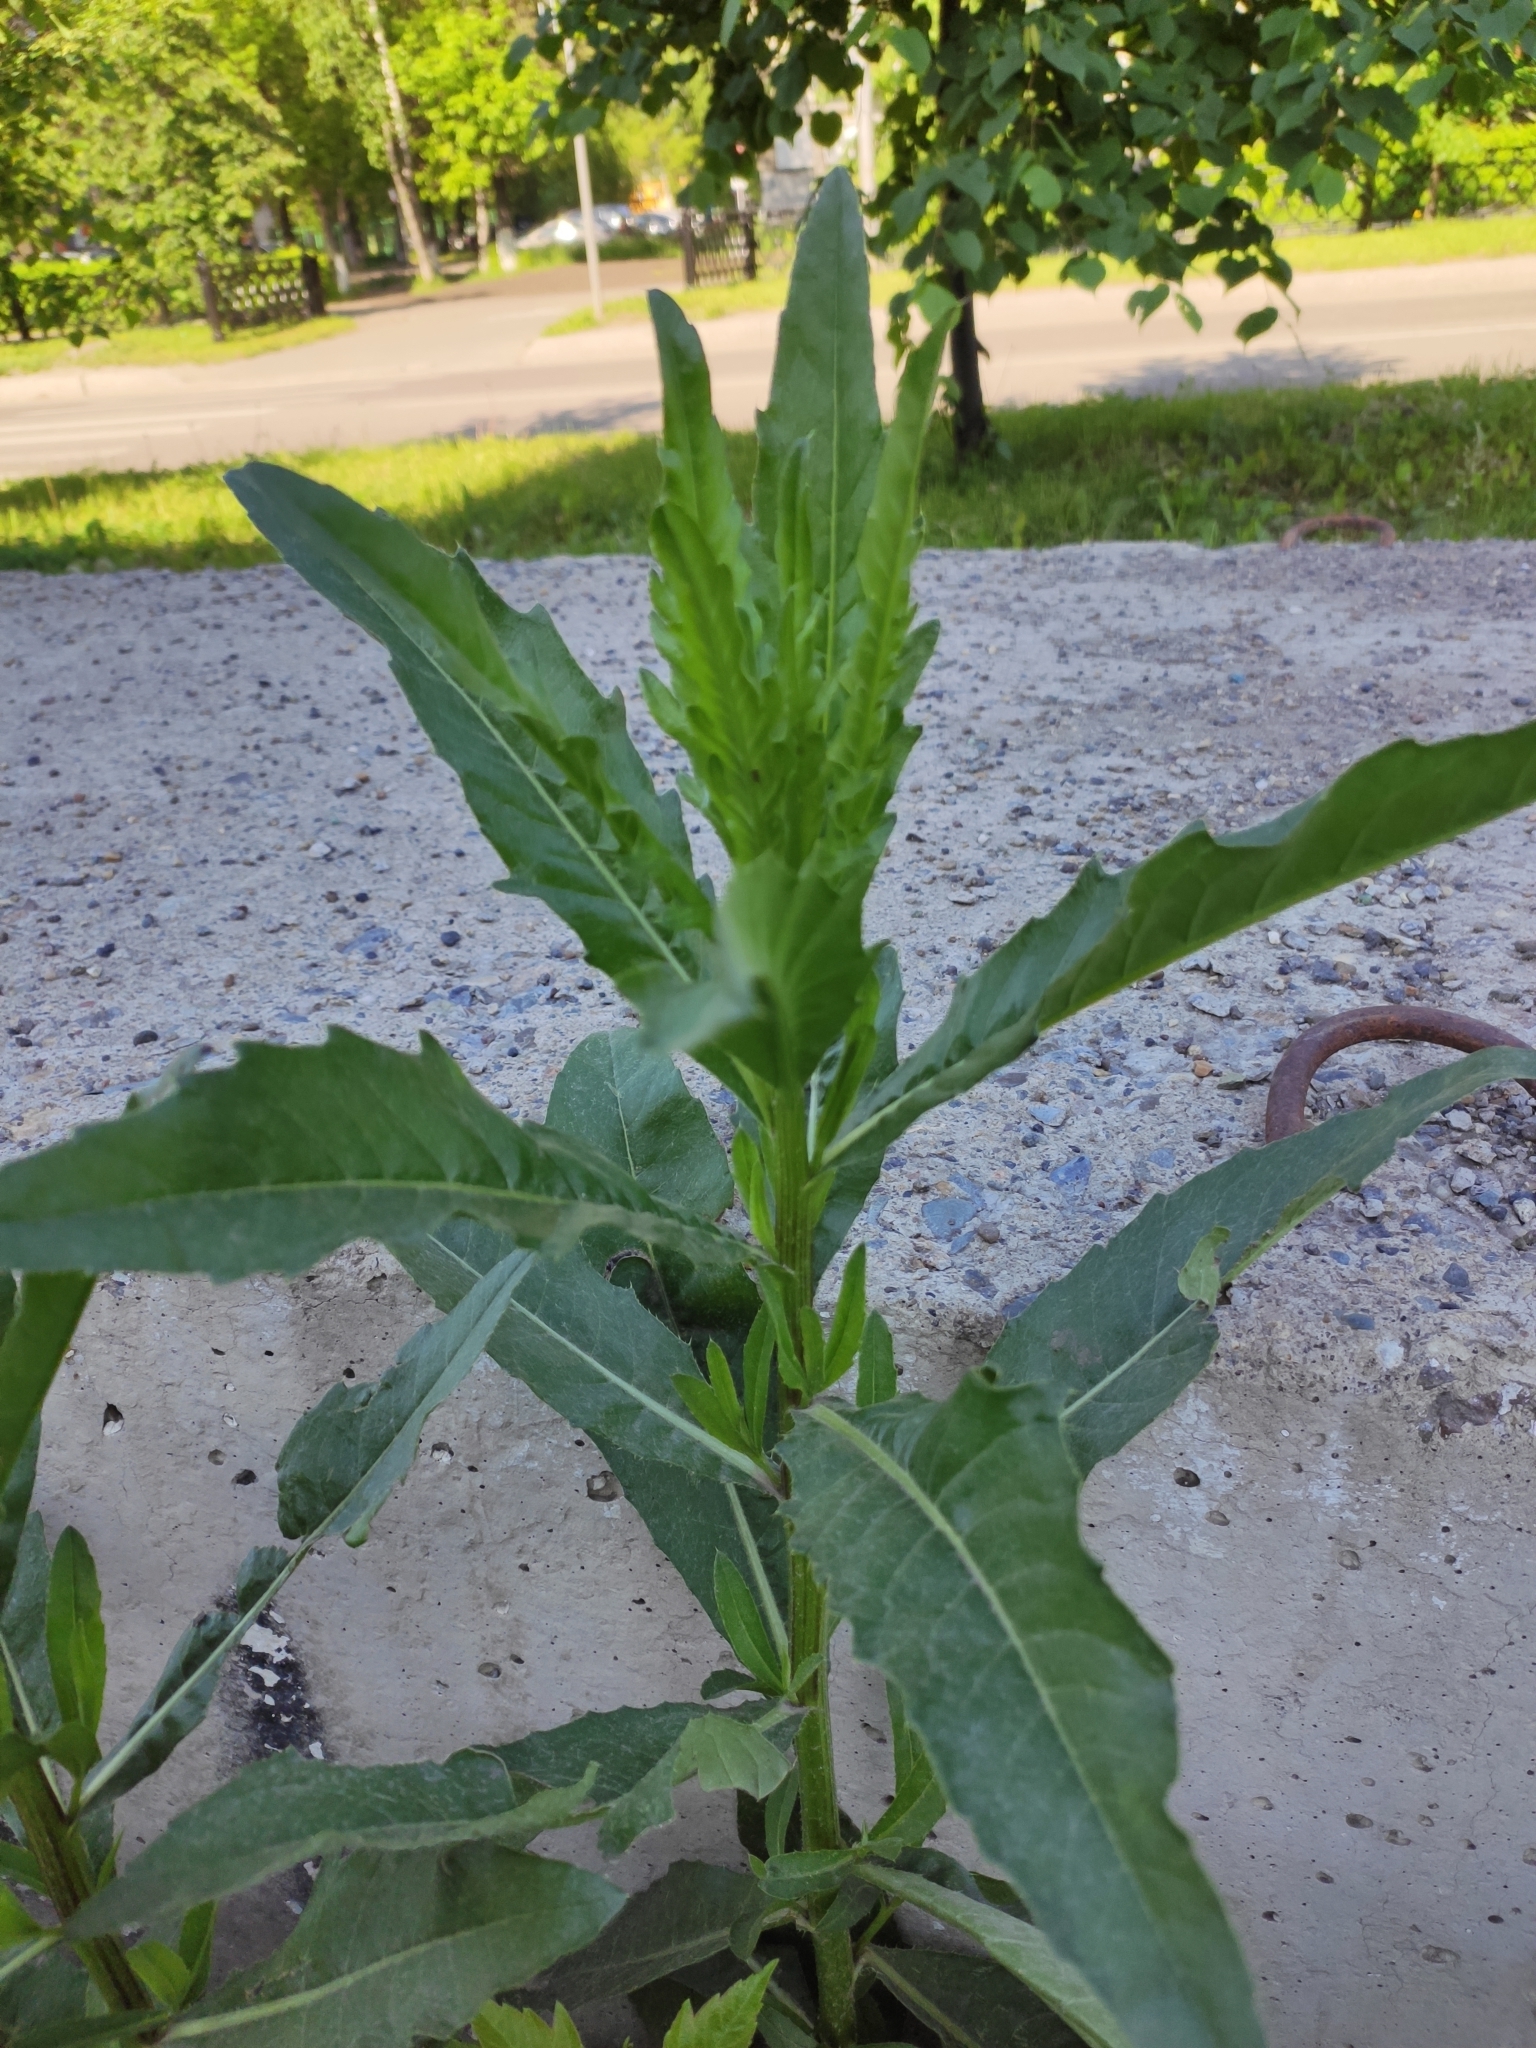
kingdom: Plantae
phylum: Tracheophyta
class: Magnoliopsida
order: Asterales
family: Asteraceae
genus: Cirsium
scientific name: Cirsium arvense
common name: Creeping thistle
